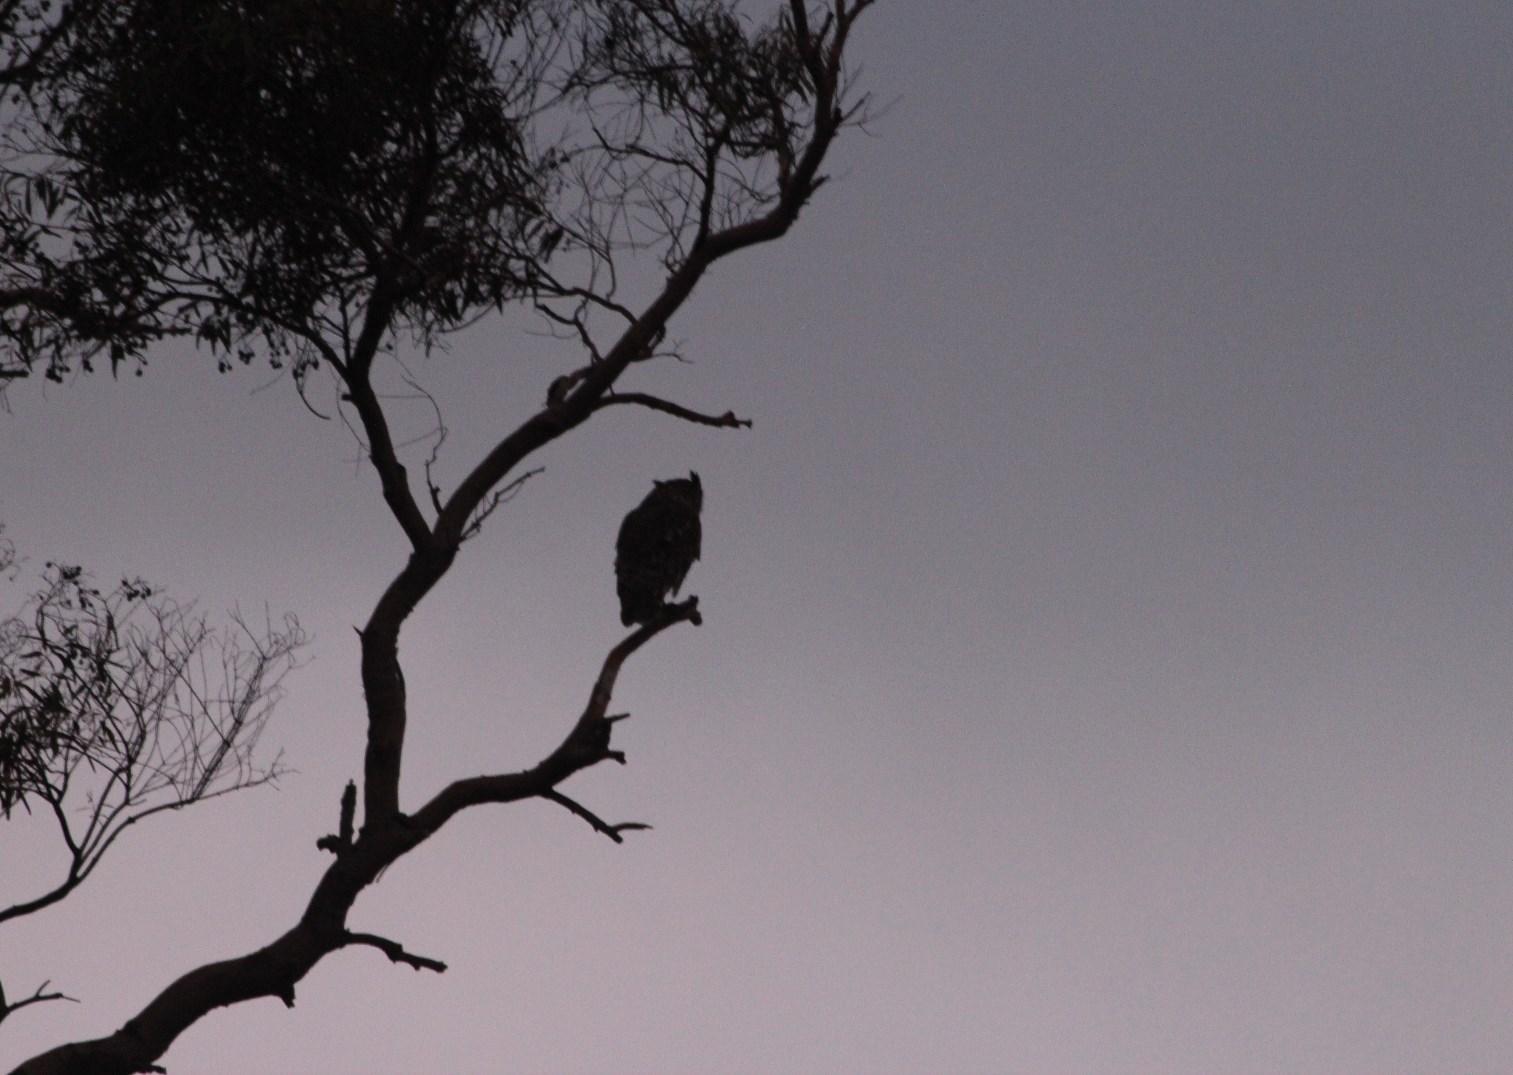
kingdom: Animalia
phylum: Chordata
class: Aves
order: Strigiformes
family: Strigidae
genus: Bubo
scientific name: Bubo africanus
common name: Spotted eagle-owl
